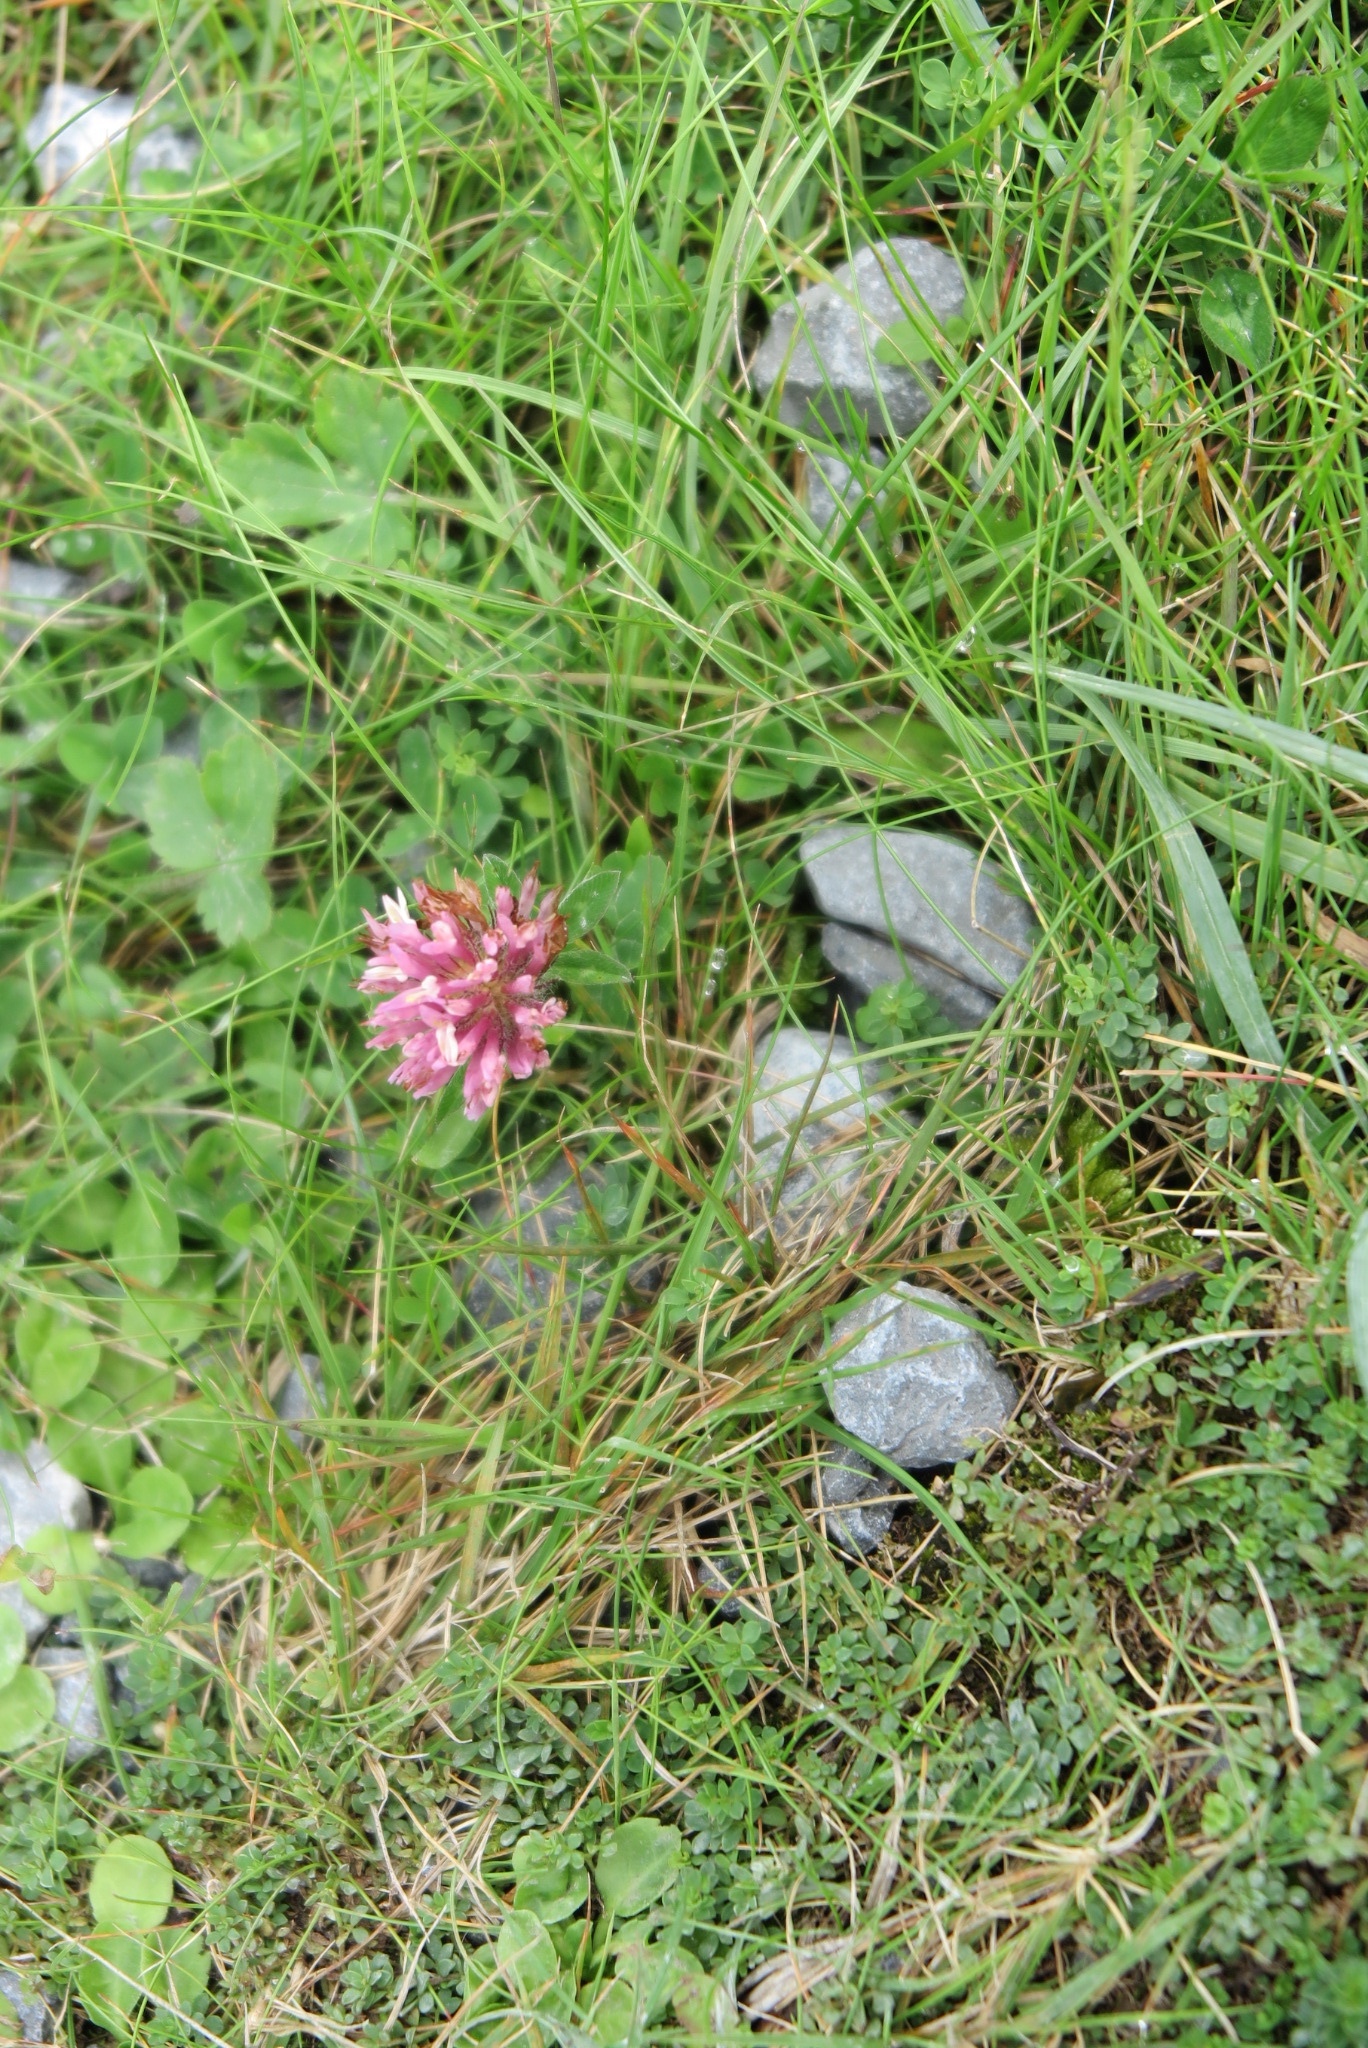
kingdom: Plantae
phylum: Tracheophyta
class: Magnoliopsida
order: Fabales
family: Fabaceae
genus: Trifolium
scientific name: Trifolium pratense
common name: Red clover
